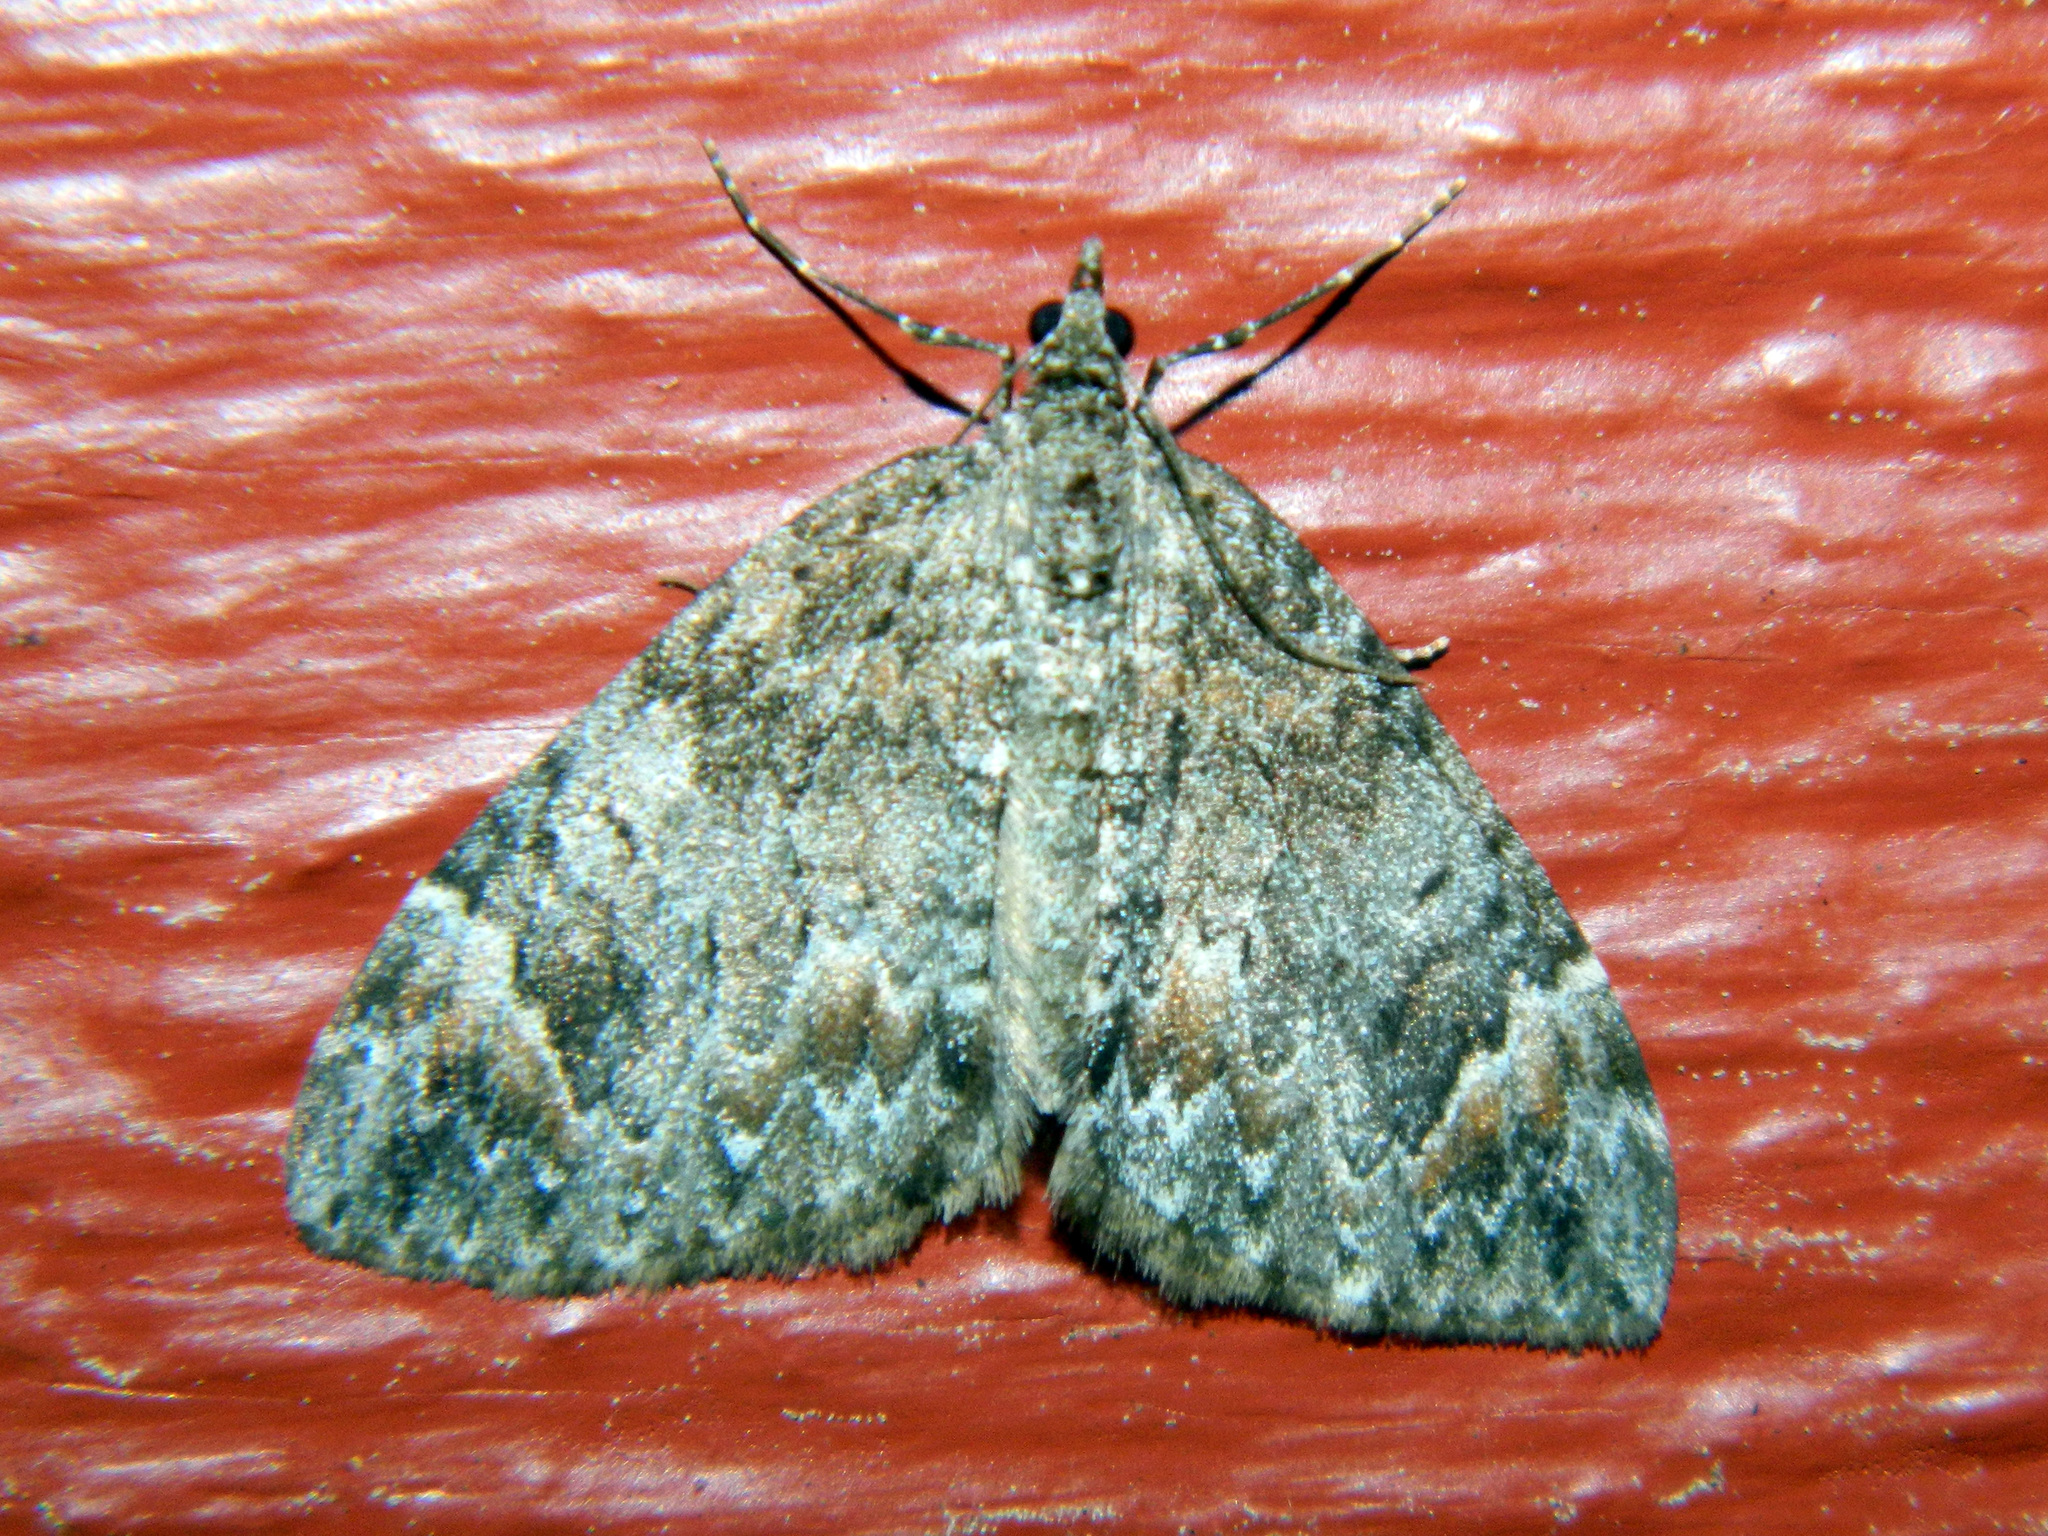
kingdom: Animalia
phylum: Arthropoda
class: Insecta
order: Lepidoptera
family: Geometridae
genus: Dysstroma
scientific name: Dysstroma citrata
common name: Dark marbled carpet
